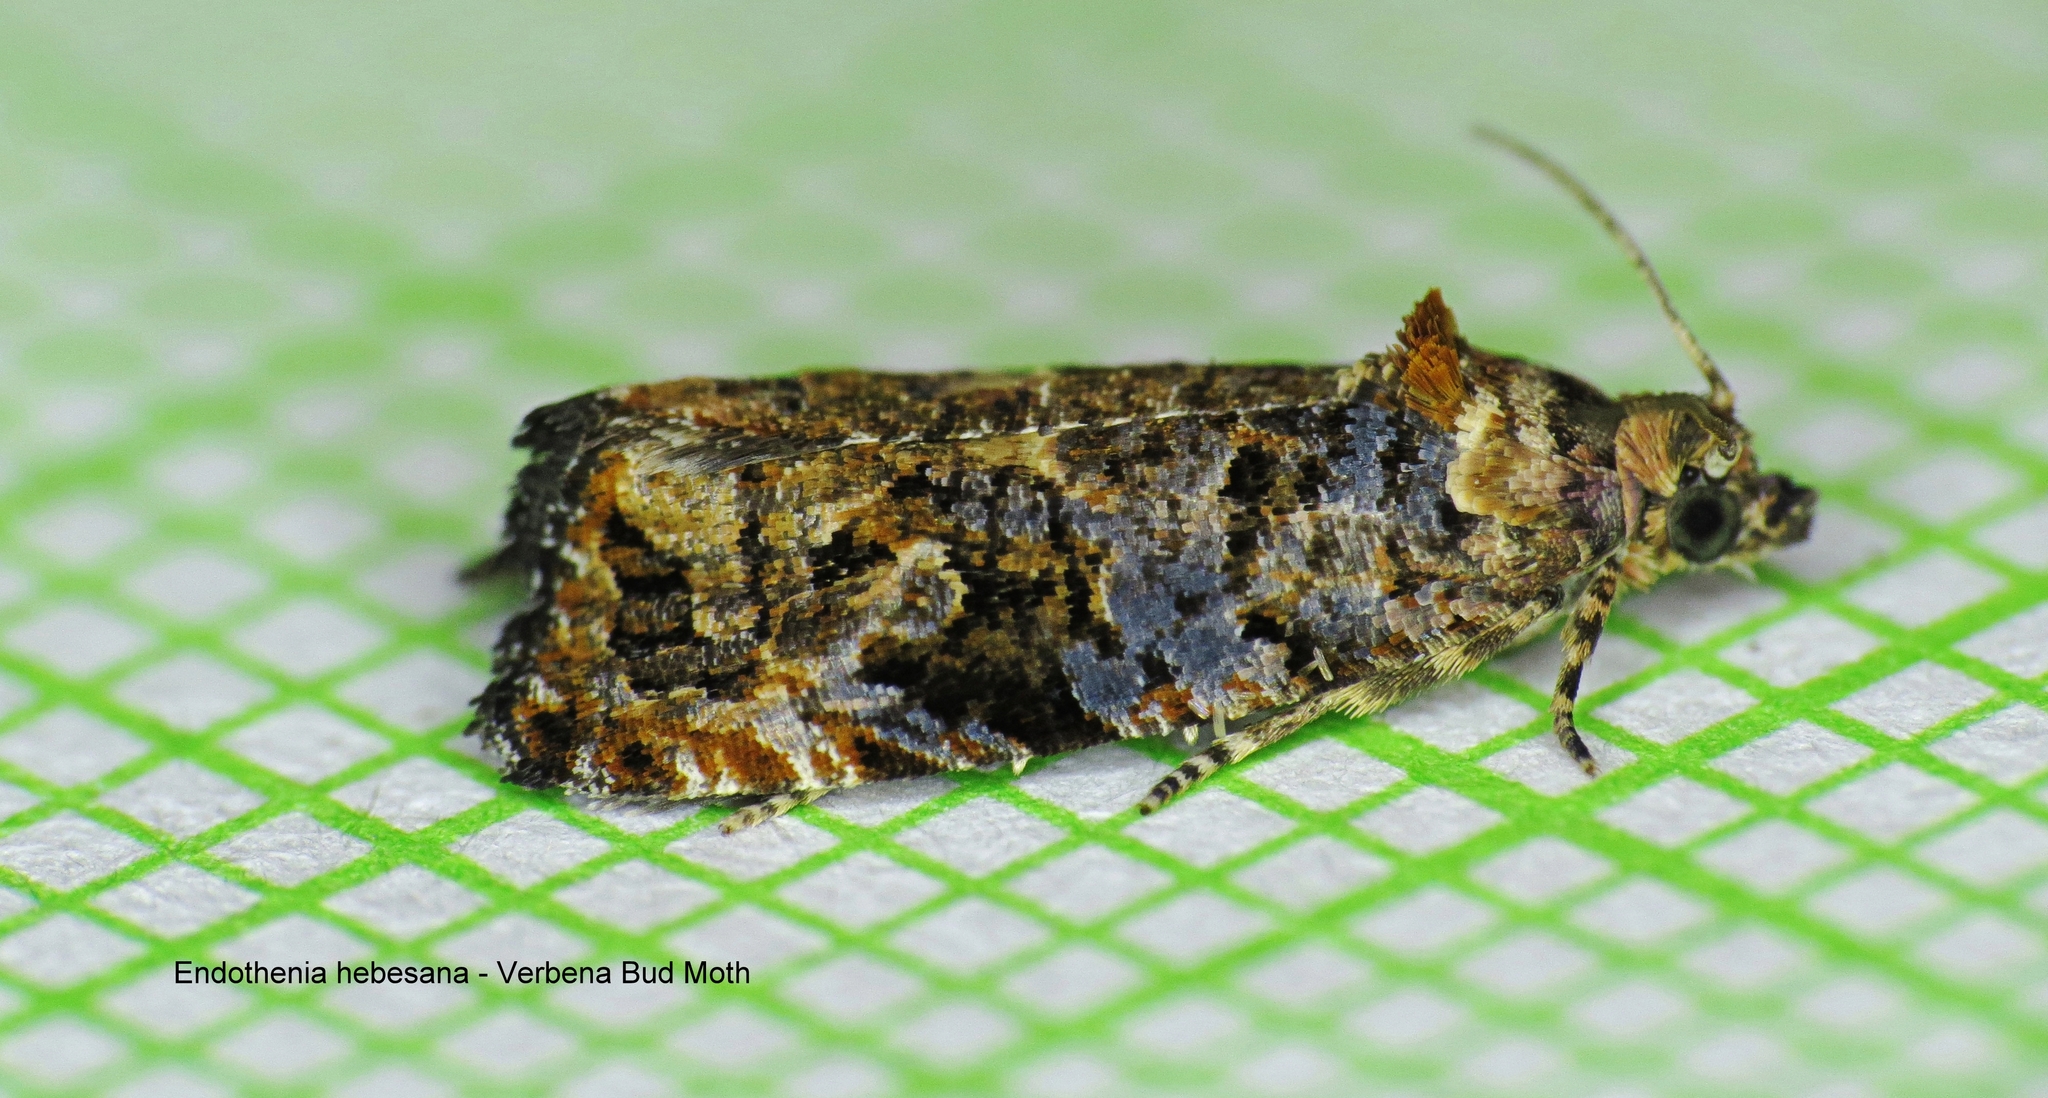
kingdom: Animalia
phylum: Arthropoda
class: Insecta
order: Lepidoptera
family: Tortricidae
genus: Endothenia
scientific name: Endothenia hebesana
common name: Verbena bud moth
